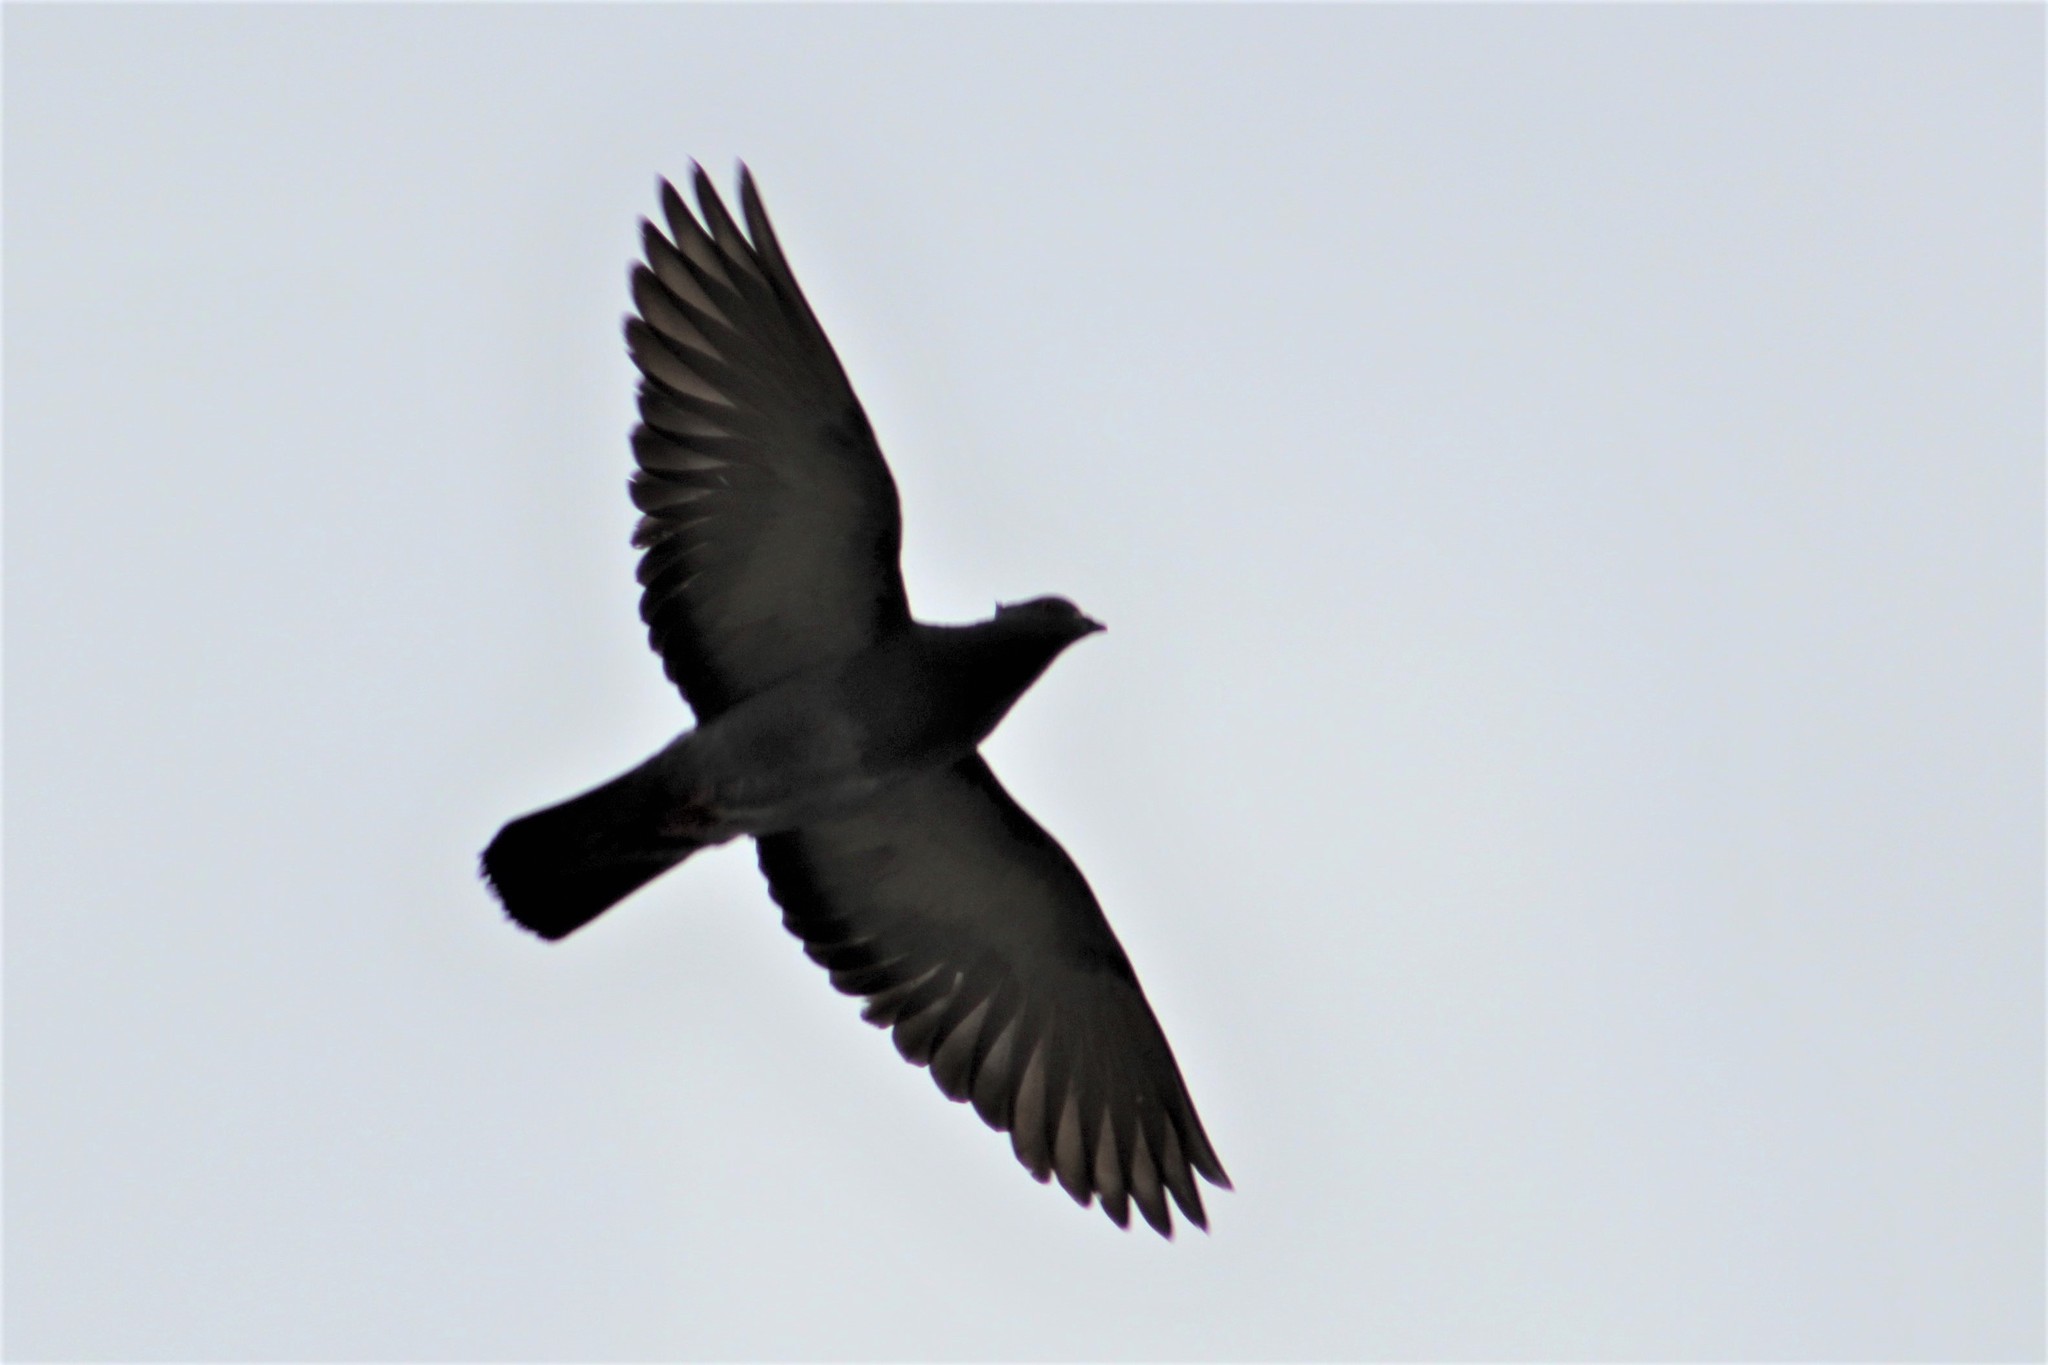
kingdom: Animalia
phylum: Chordata
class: Aves
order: Columbiformes
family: Columbidae
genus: Columba
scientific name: Columba livia
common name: Rock pigeon
